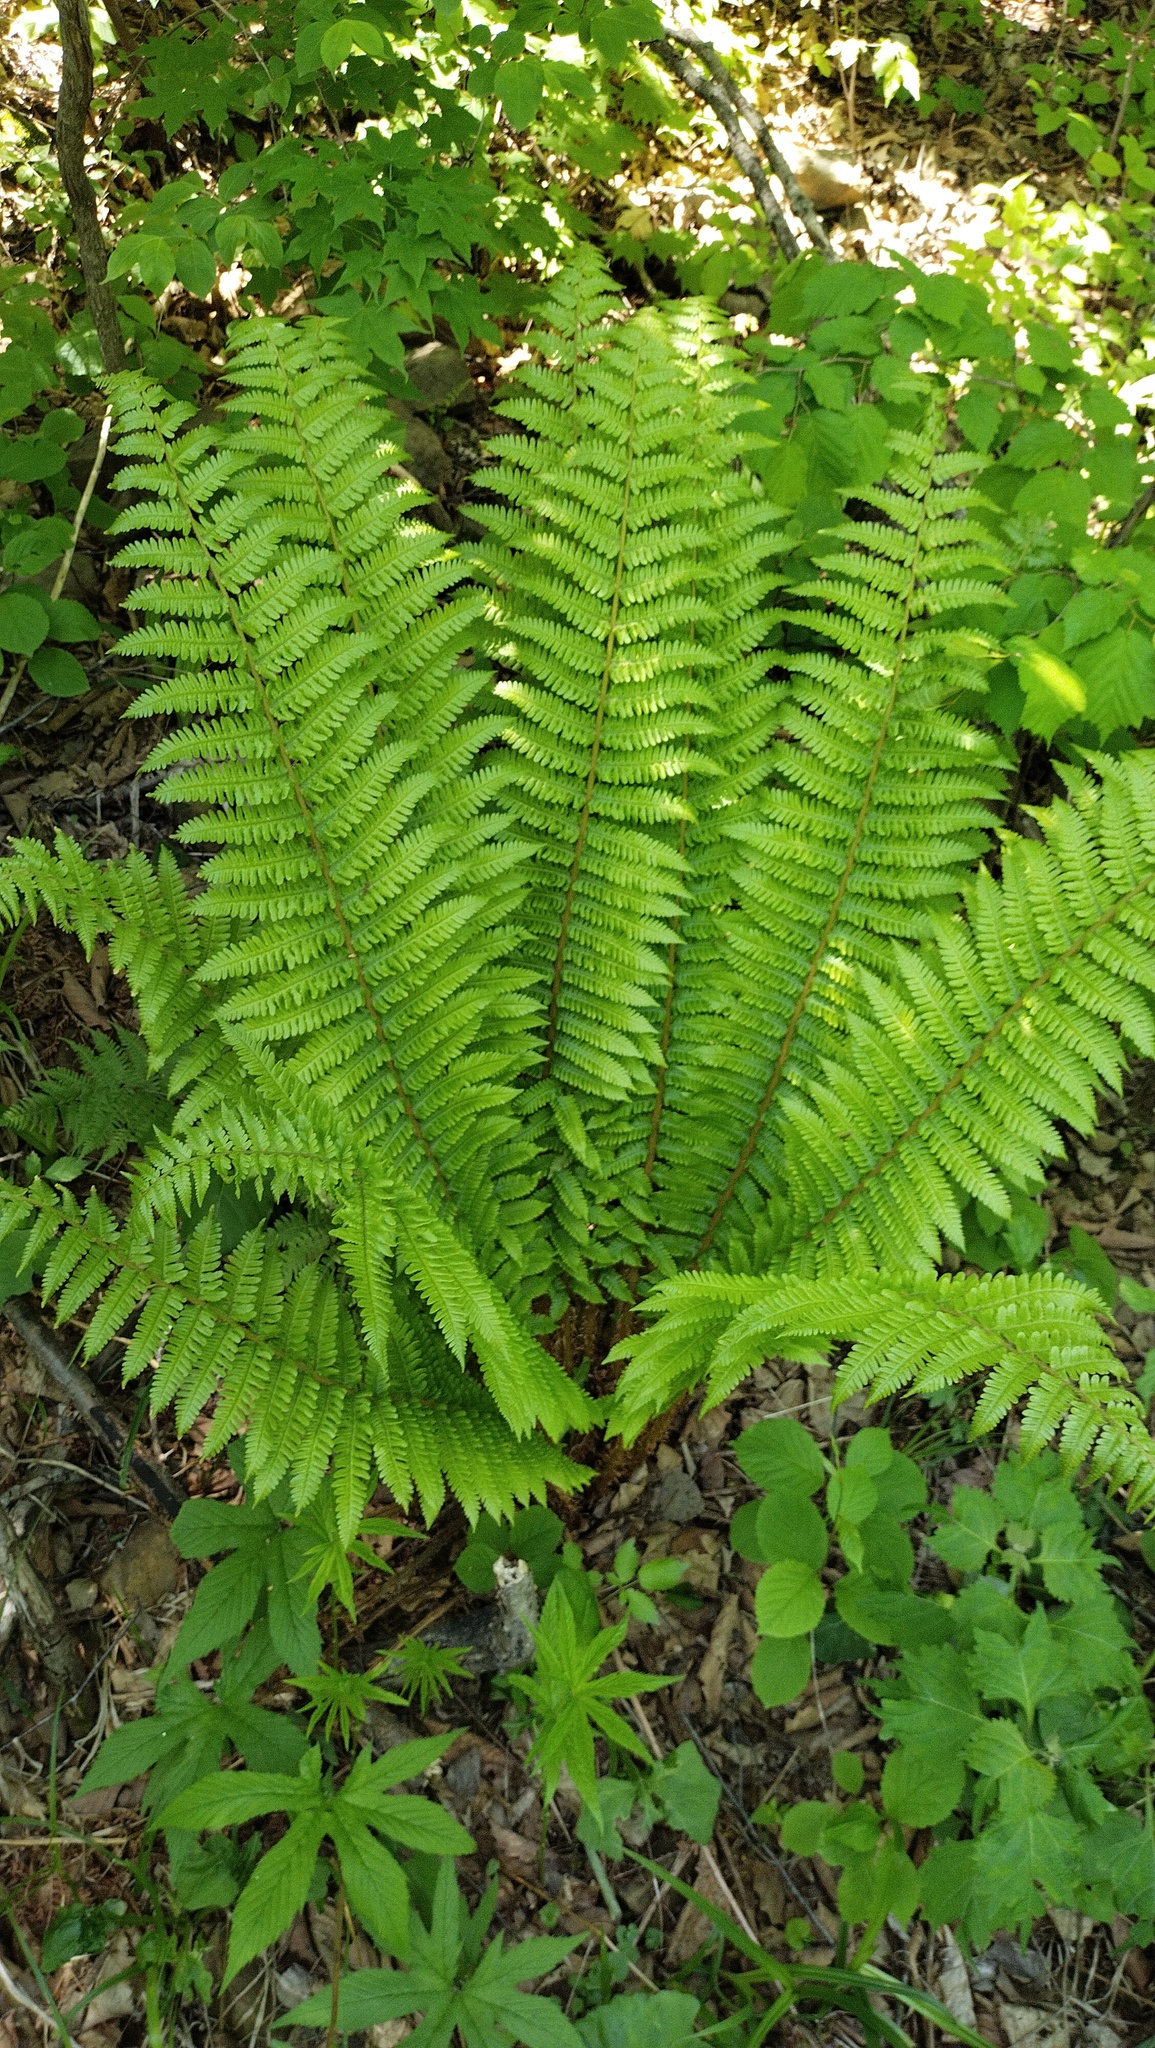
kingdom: Plantae
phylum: Tracheophyta
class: Polypodiopsida
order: Polypodiales
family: Dryopteridaceae
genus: Dryopteris
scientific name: Dryopteris crassirhizoma
